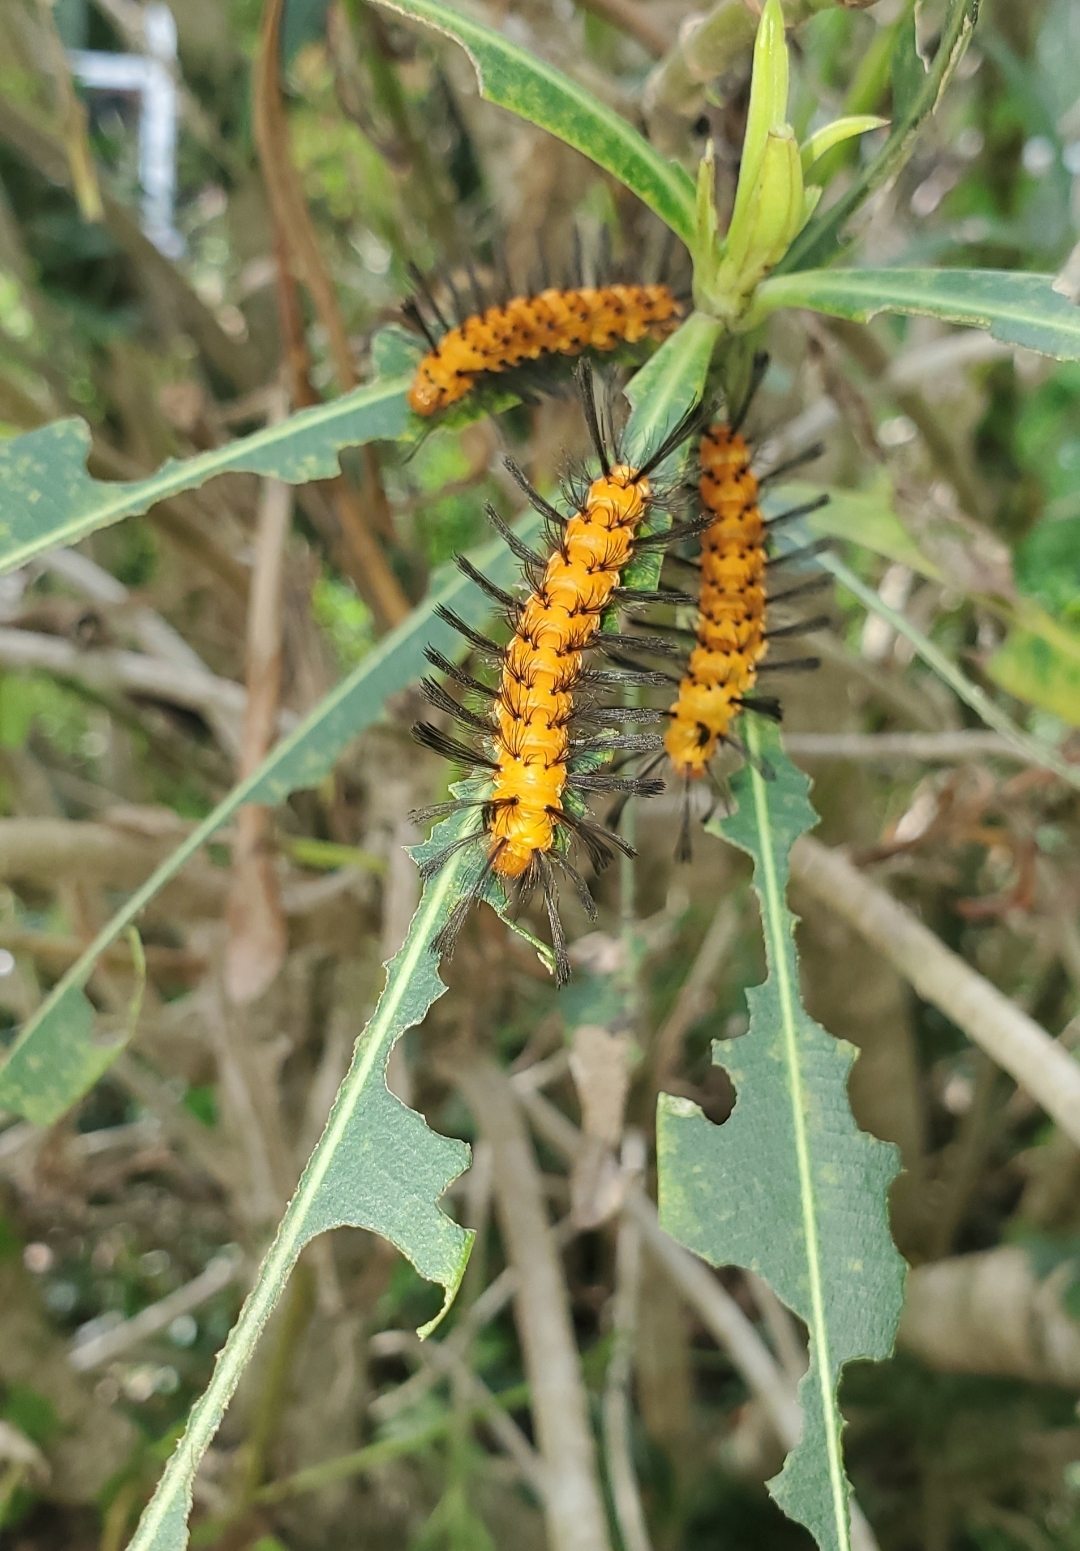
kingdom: Animalia
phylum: Arthropoda
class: Insecta
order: Lepidoptera
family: Erebidae
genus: Syntomeida
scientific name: Syntomeida epilais
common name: Polka-dot wasp moth
